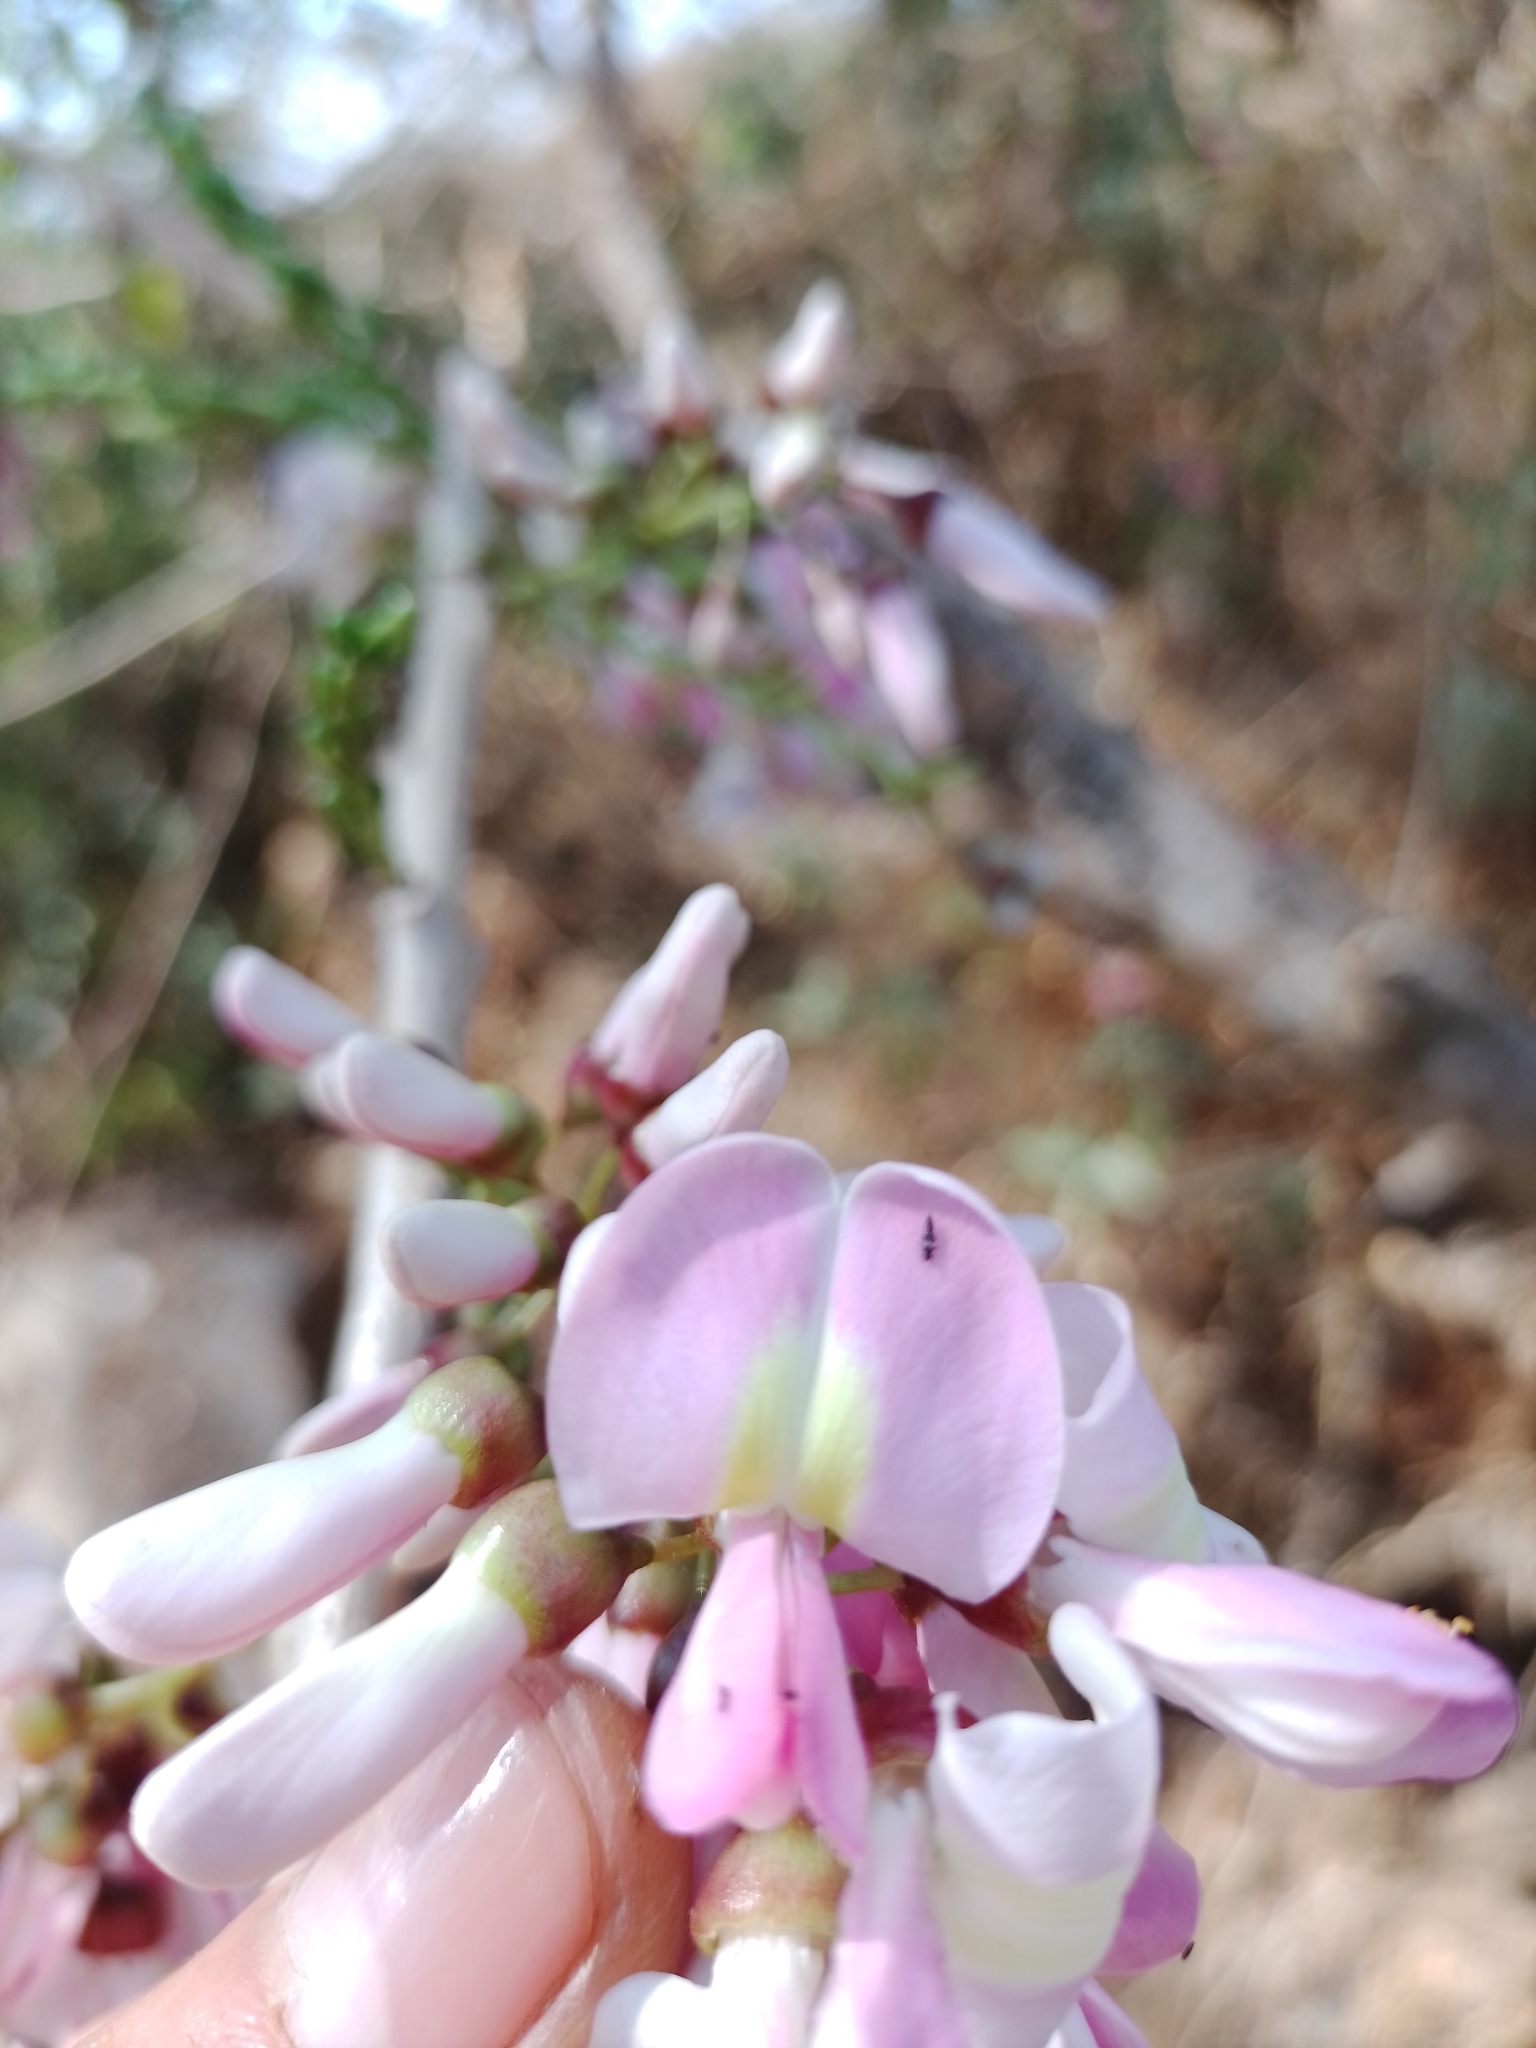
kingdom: Plantae
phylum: Tracheophyta
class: Magnoliopsida
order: Fabales
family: Fabaceae
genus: Gliricidia
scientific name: Gliricidia sepium
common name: Quickstick
